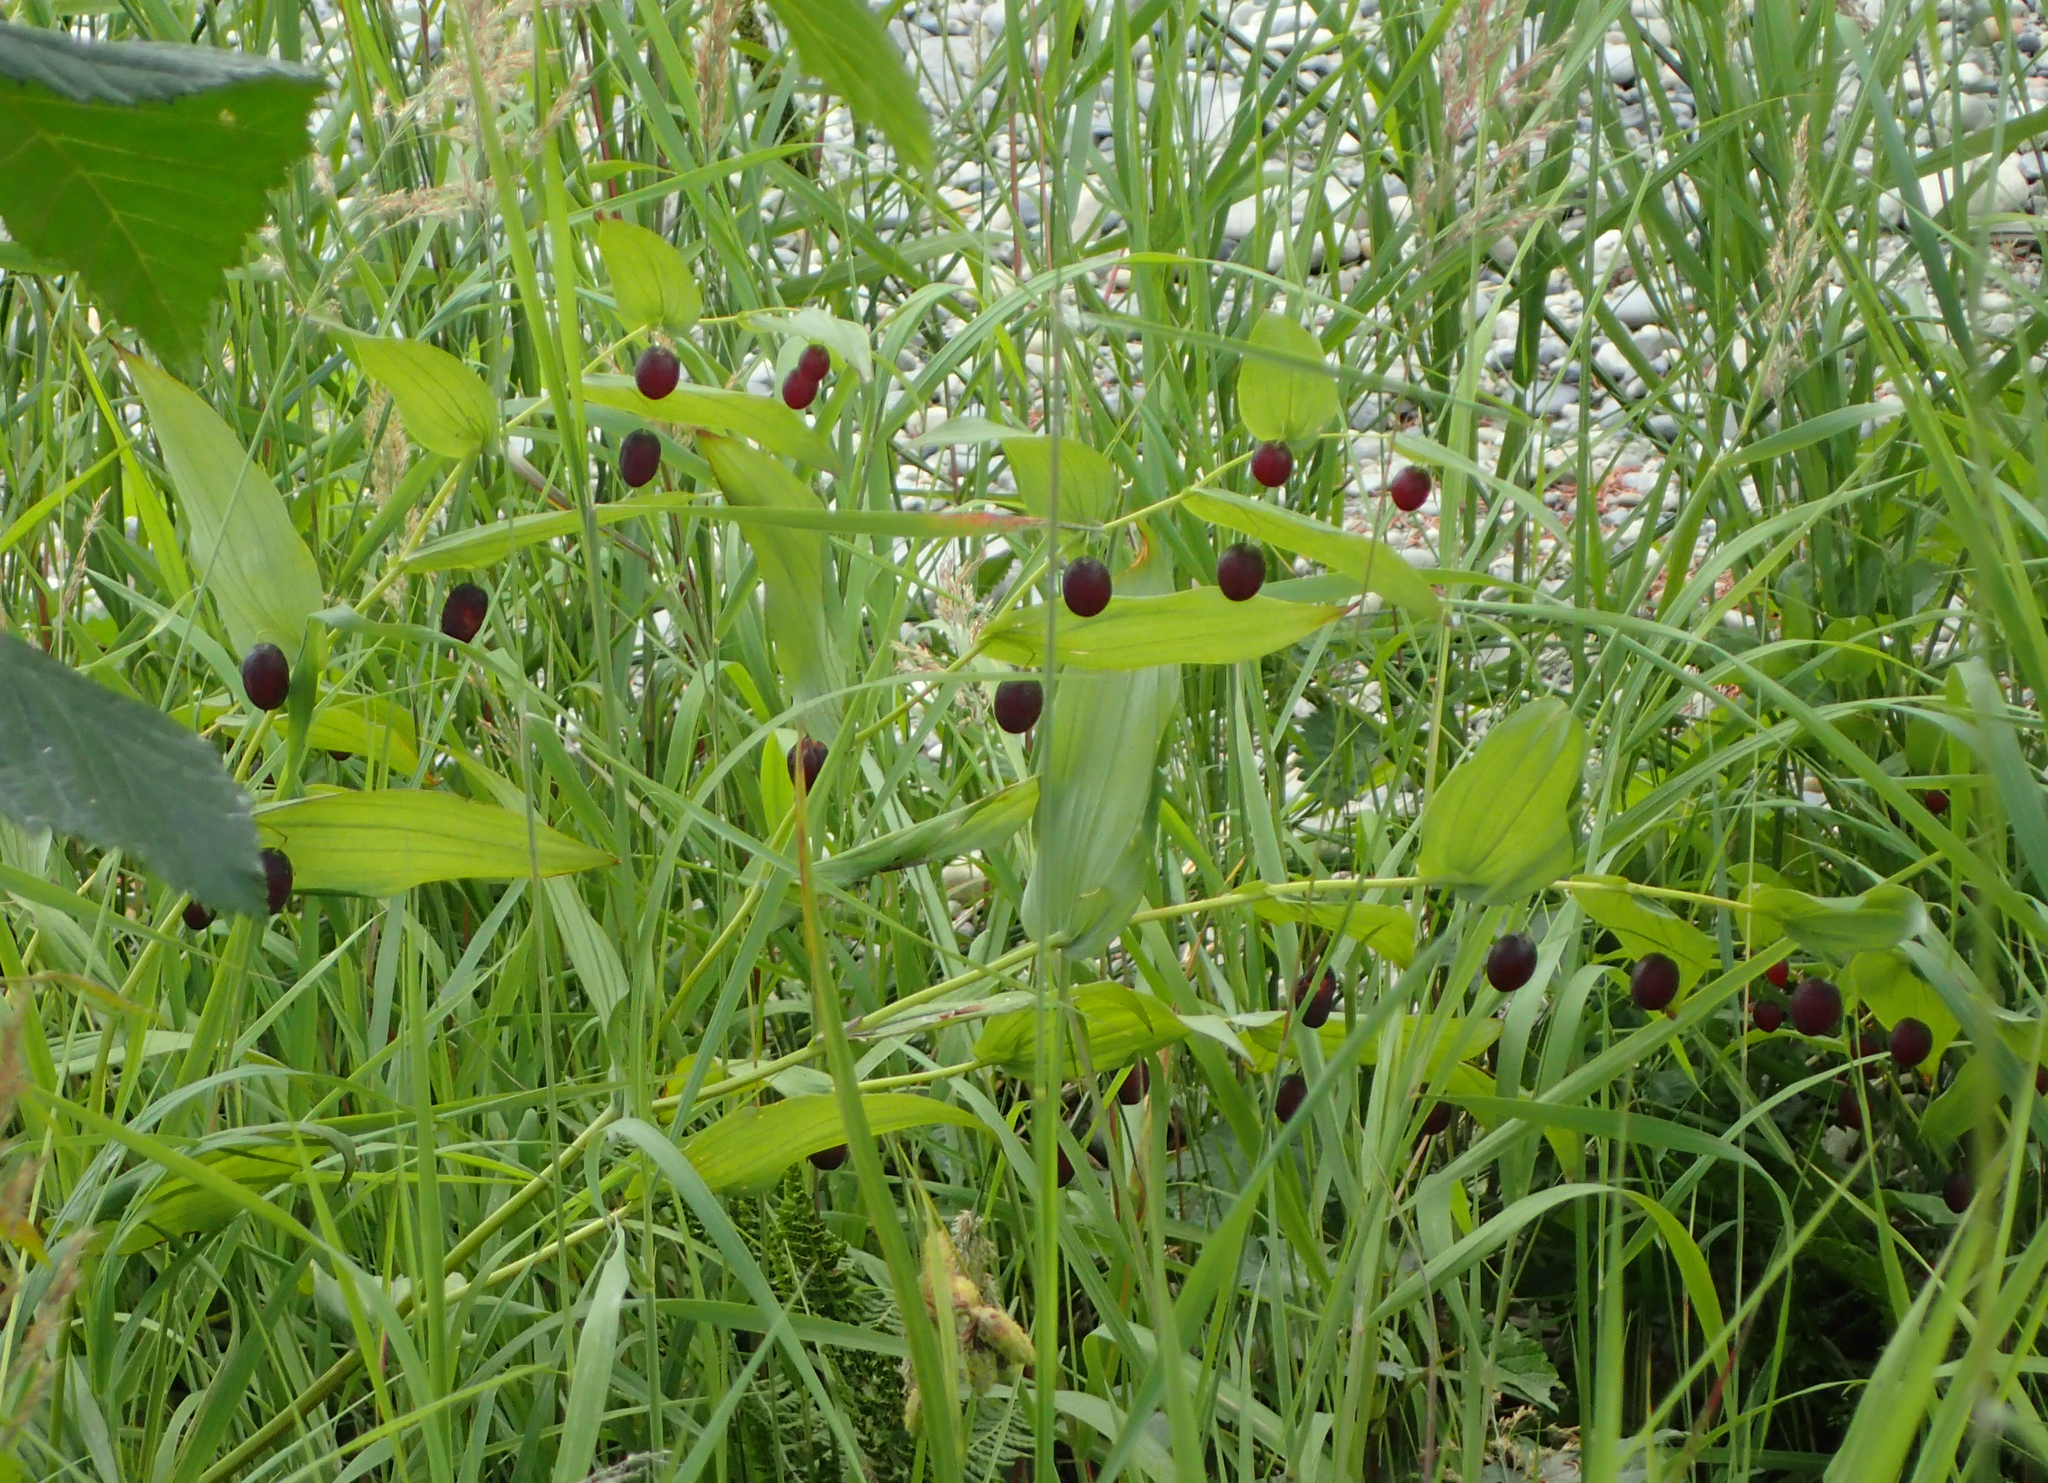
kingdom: Plantae
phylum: Tracheophyta
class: Liliopsida
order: Liliales
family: Liliaceae
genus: Streptopus
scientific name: Streptopus amplexifolius
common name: Clasp twisted stalk
